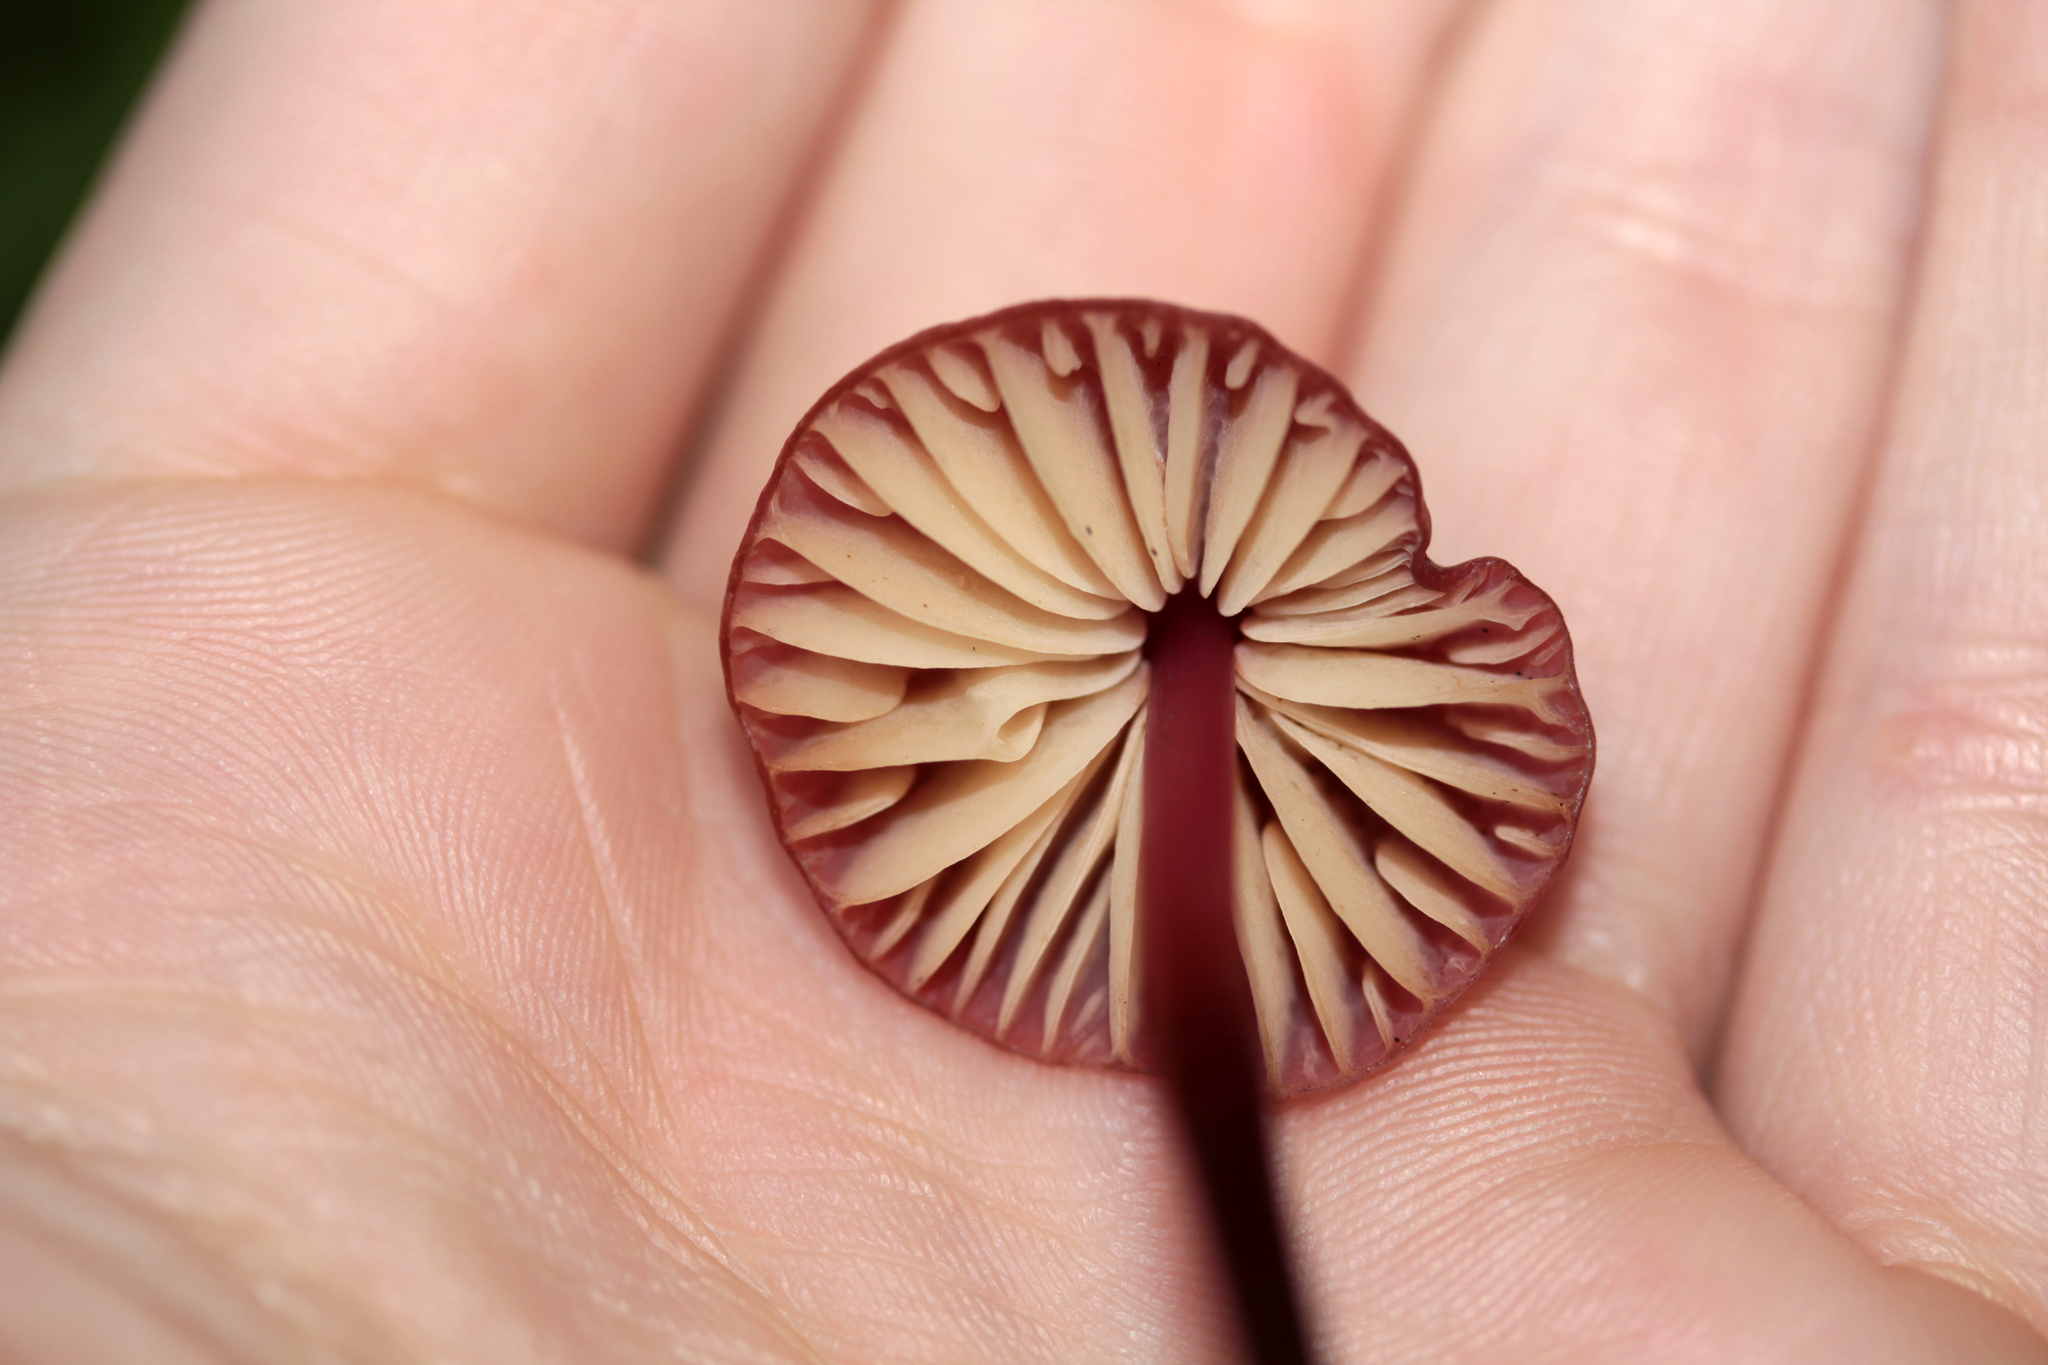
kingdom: Fungi
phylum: Basidiomycota
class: Agaricomycetes
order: Agaricales
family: Marasmiaceae
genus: Marasmius
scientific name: Marasmius plicatulus
